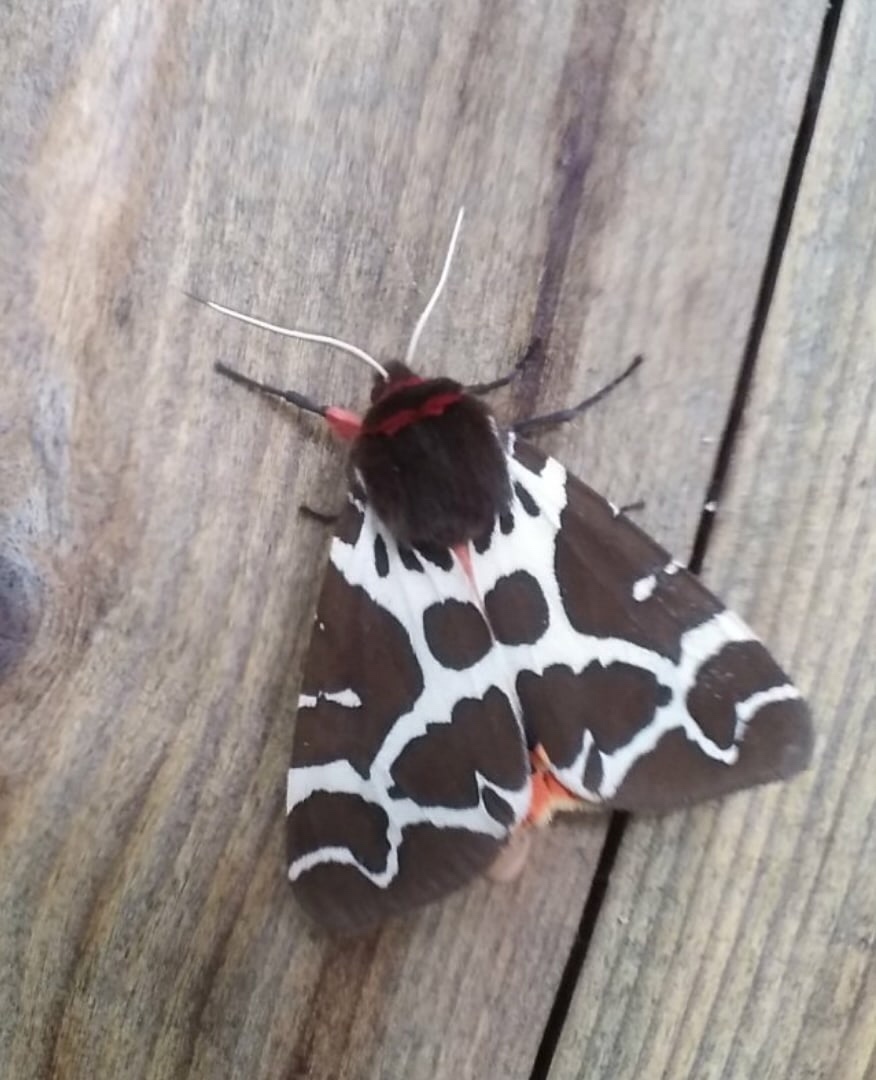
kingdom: Animalia
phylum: Arthropoda
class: Insecta
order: Lepidoptera
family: Erebidae
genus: Arctia
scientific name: Arctia caja
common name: Garden tiger
